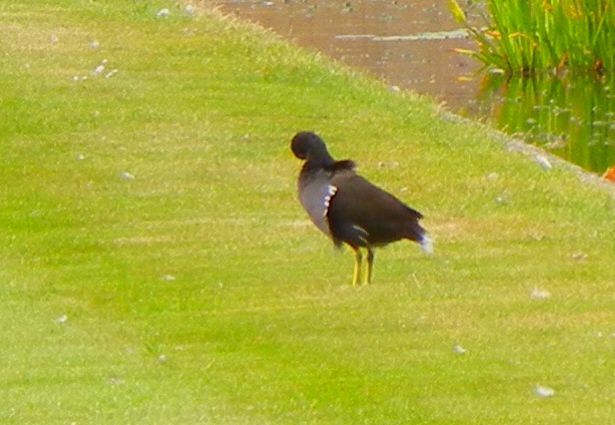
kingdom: Animalia
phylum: Chordata
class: Aves
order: Gruiformes
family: Rallidae
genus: Gallinula
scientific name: Gallinula chloropus
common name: Common moorhen
